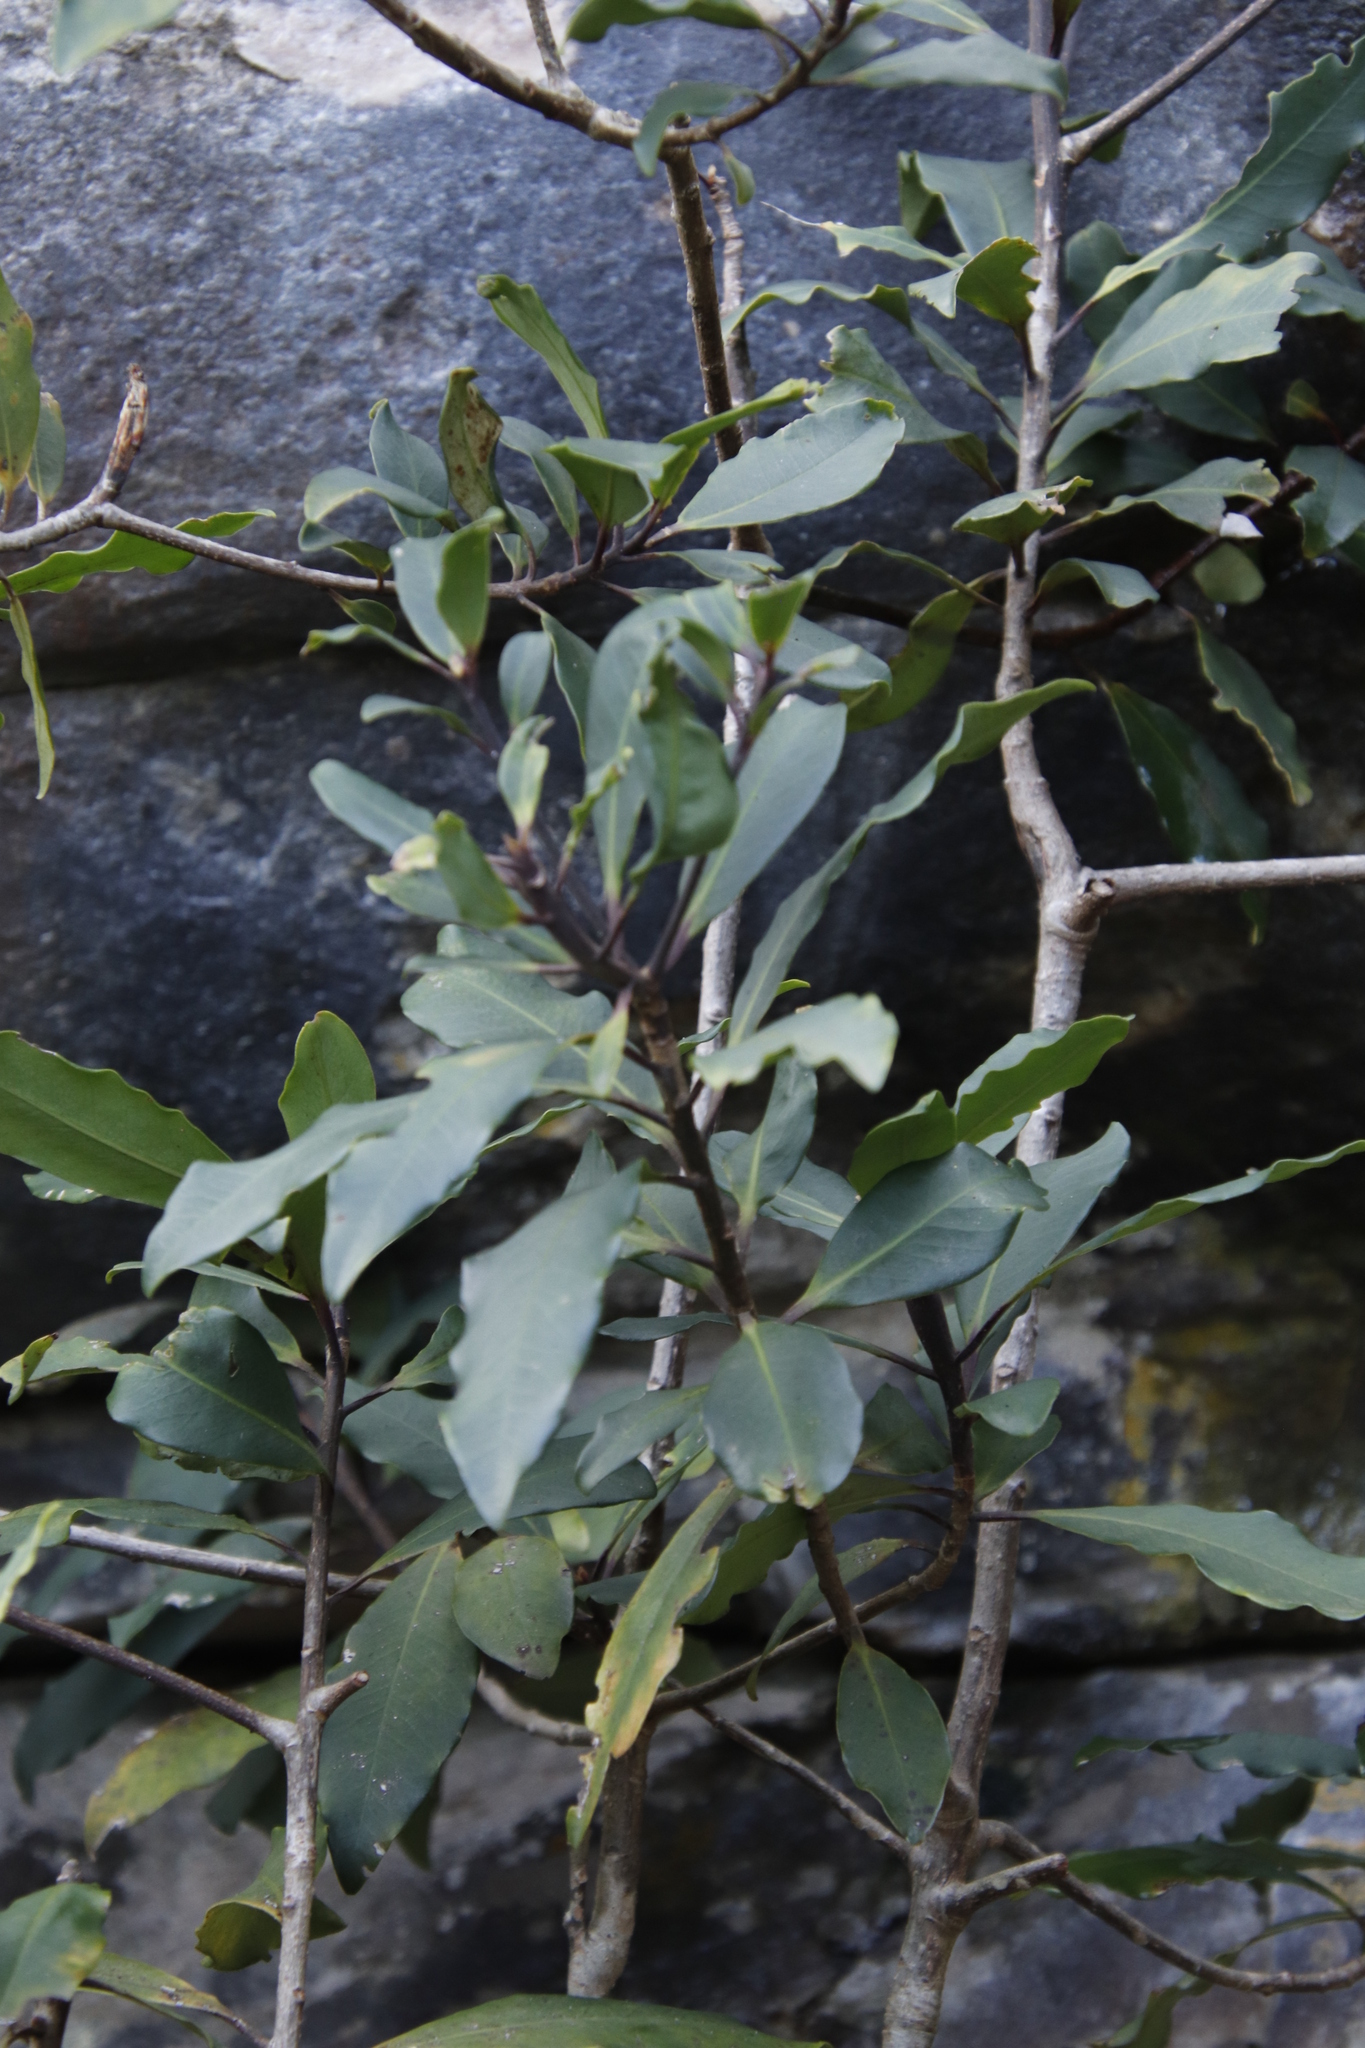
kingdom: Plantae
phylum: Tracheophyta
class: Magnoliopsida
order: Ericales
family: Primulaceae
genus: Myrsine
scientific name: Myrsine melanophloeos
